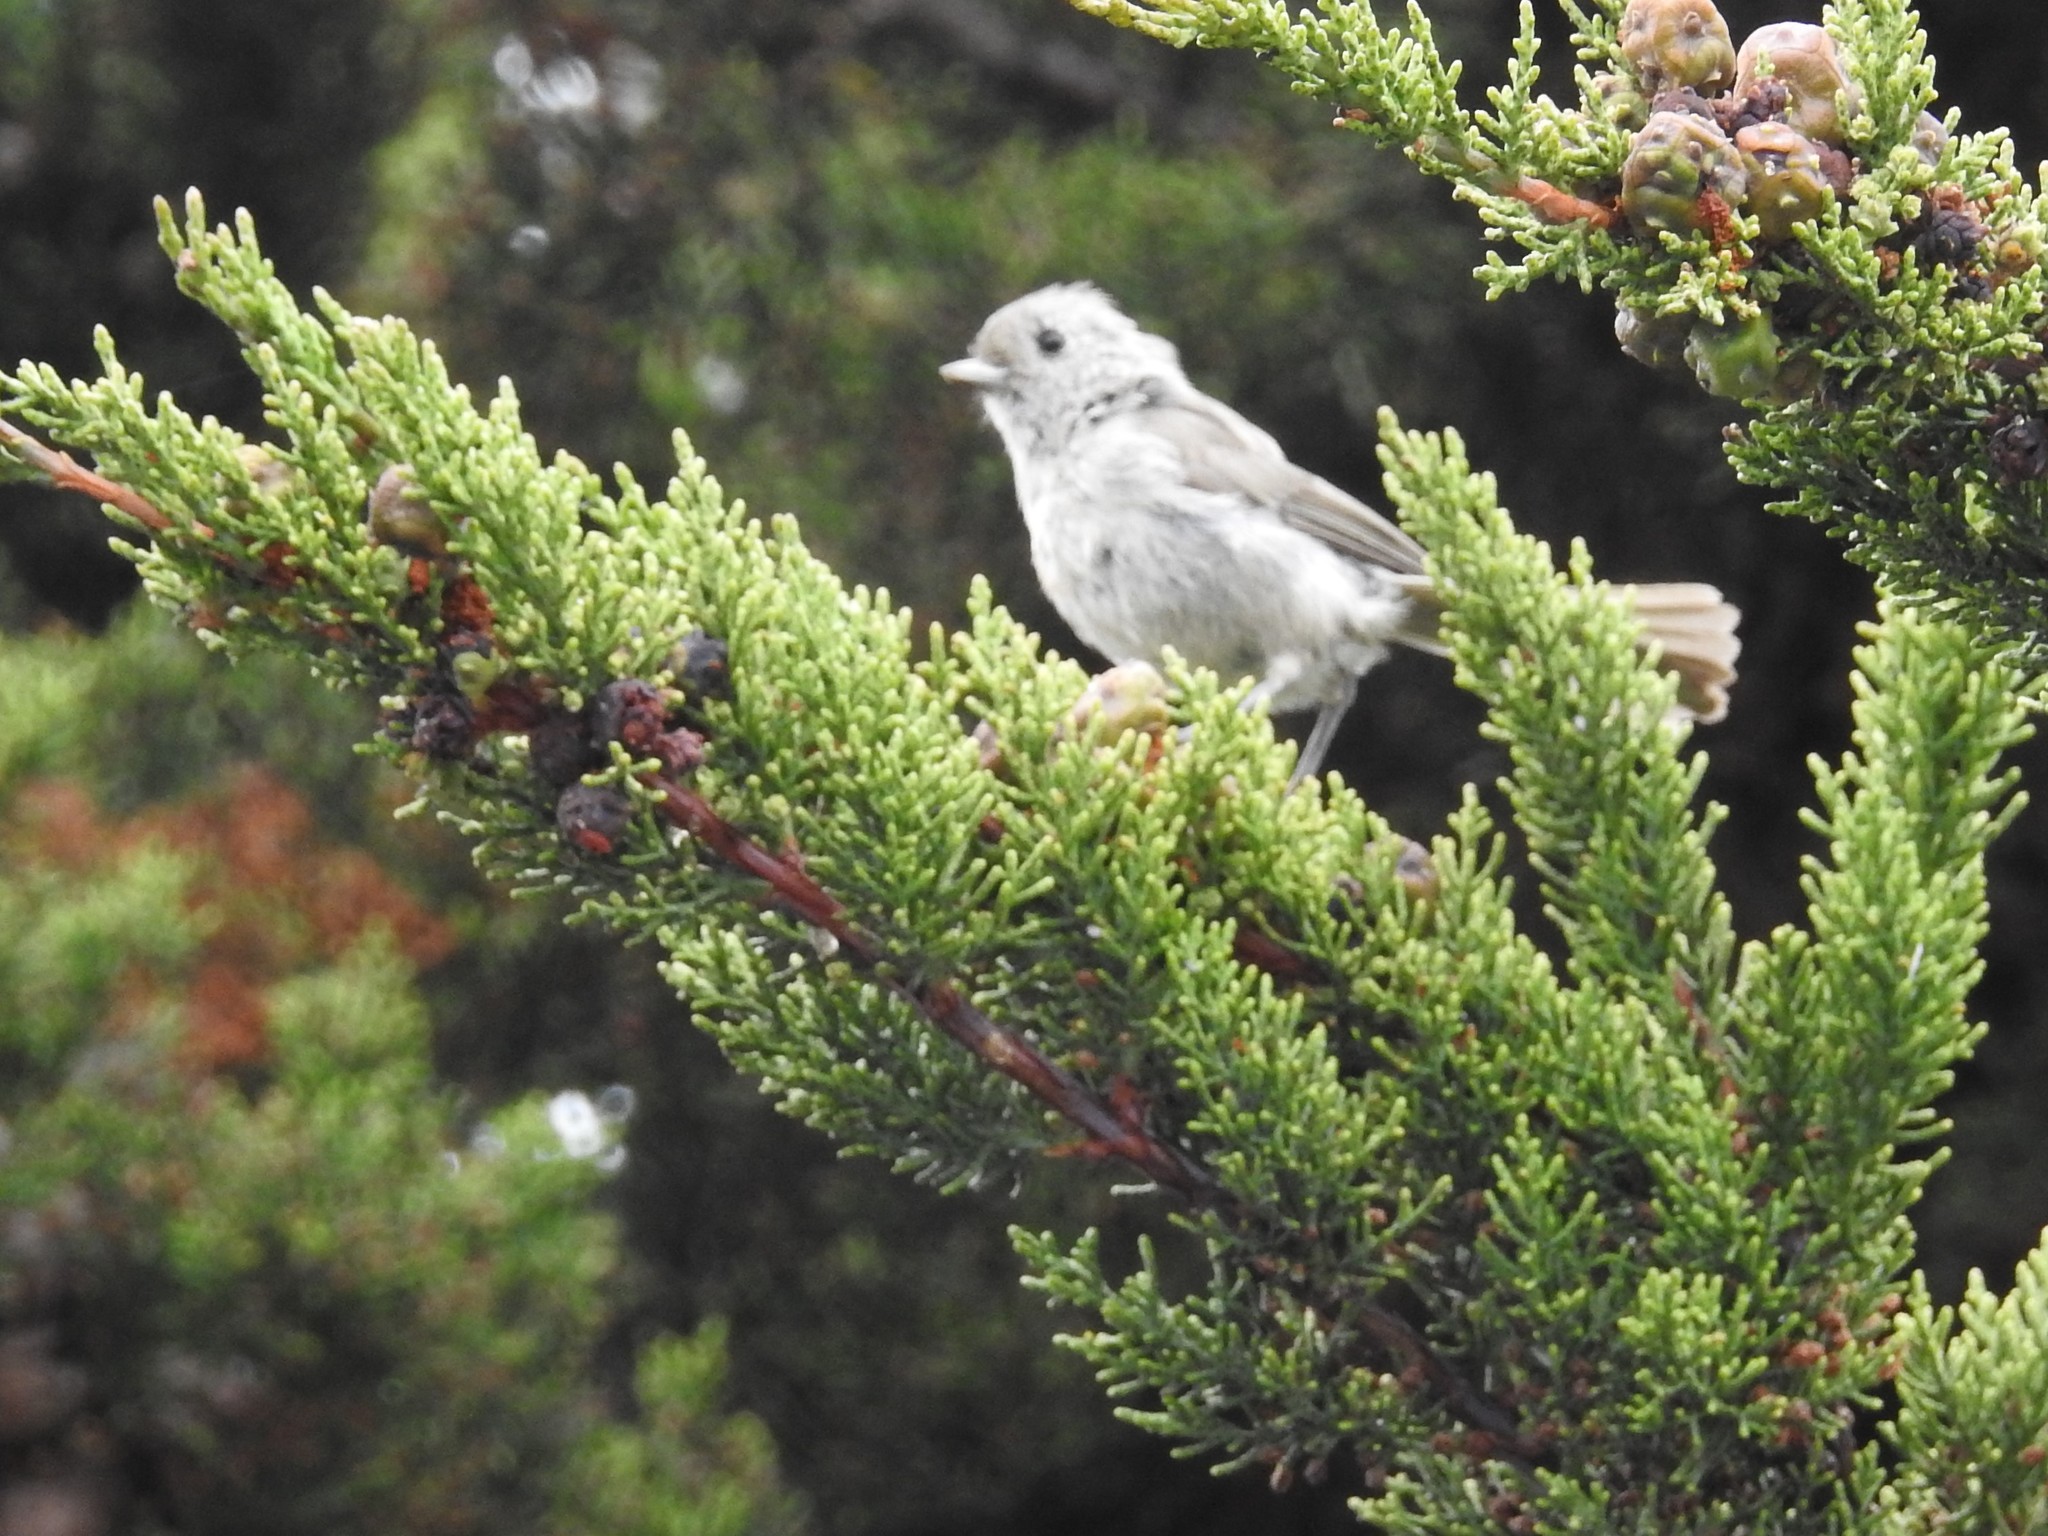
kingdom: Animalia
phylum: Chordata
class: Aves
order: Passeriformes
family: Paridae
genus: Baeolophus
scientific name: Baeolophus inornatus
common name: Oak titmouse
